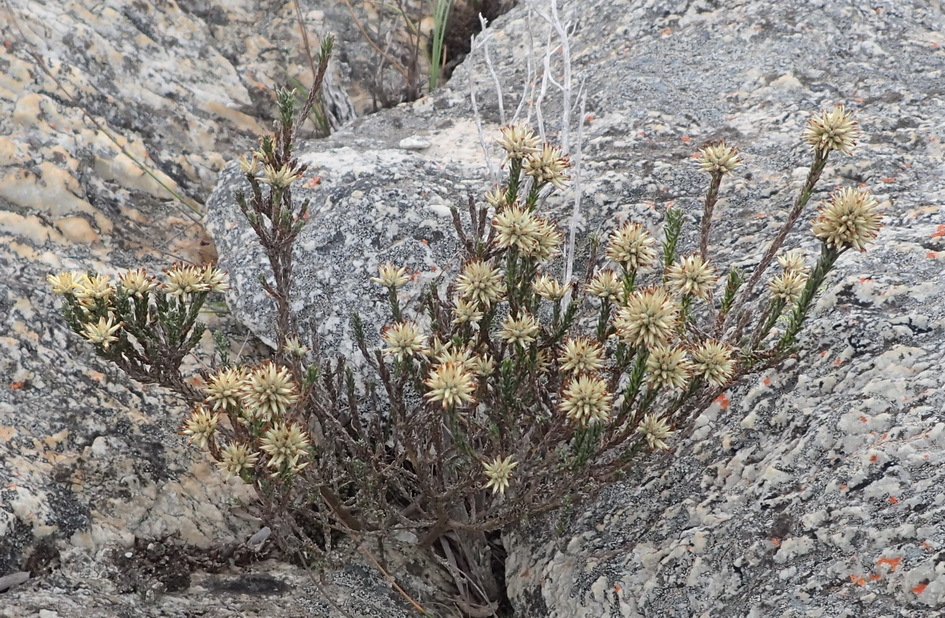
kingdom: Plantae
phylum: Tracheophyta
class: Magnoliopsida
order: Asterales
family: Asteraceae
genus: Seriphium
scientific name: Seriphium spirale
